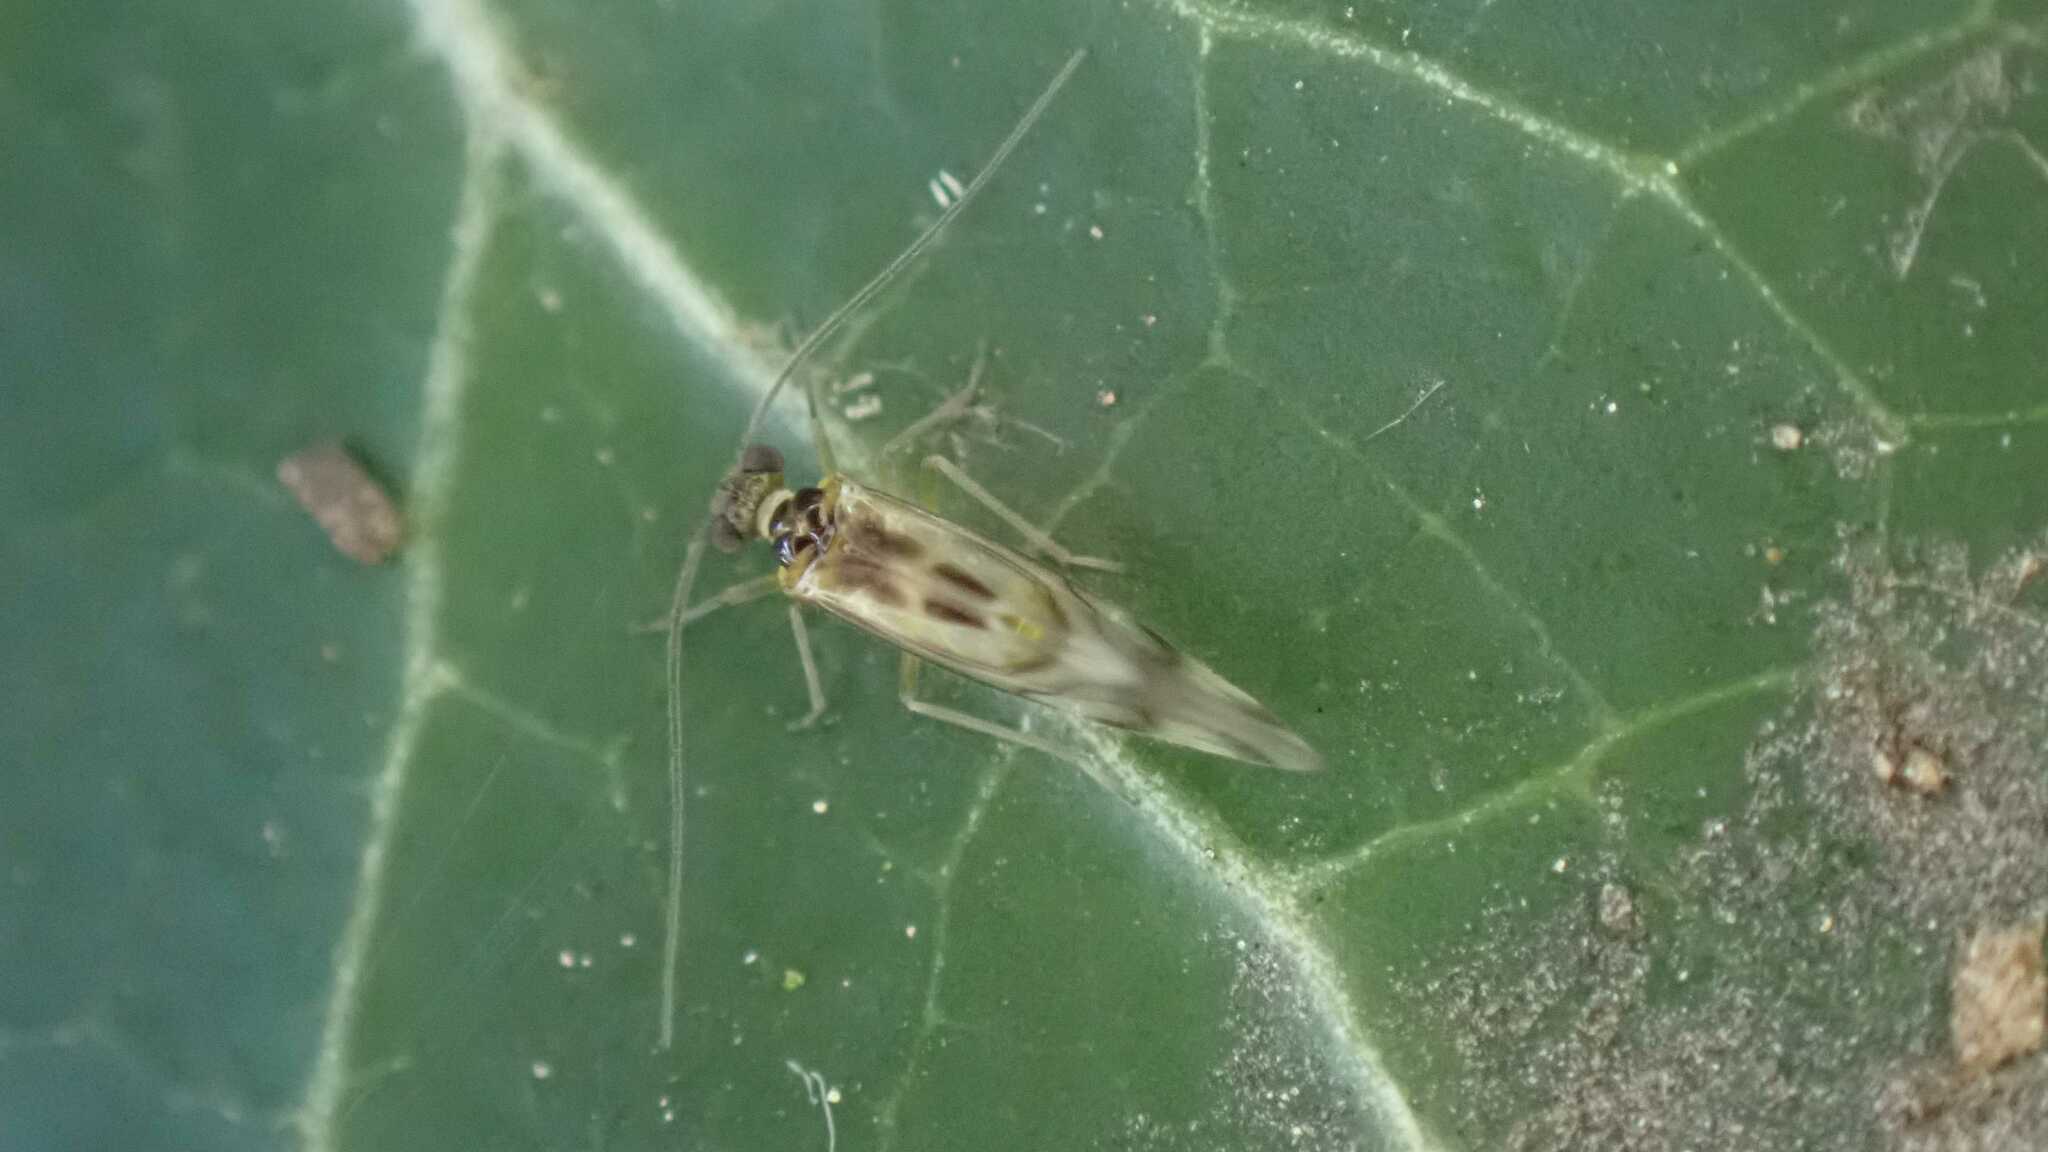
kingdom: Animalia
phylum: Arthropoda
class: Insecta
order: Psocodea
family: Stenopsocidae
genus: Graphopsocus
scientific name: Graphopsocus cruciatus
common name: Lizard bark louse
